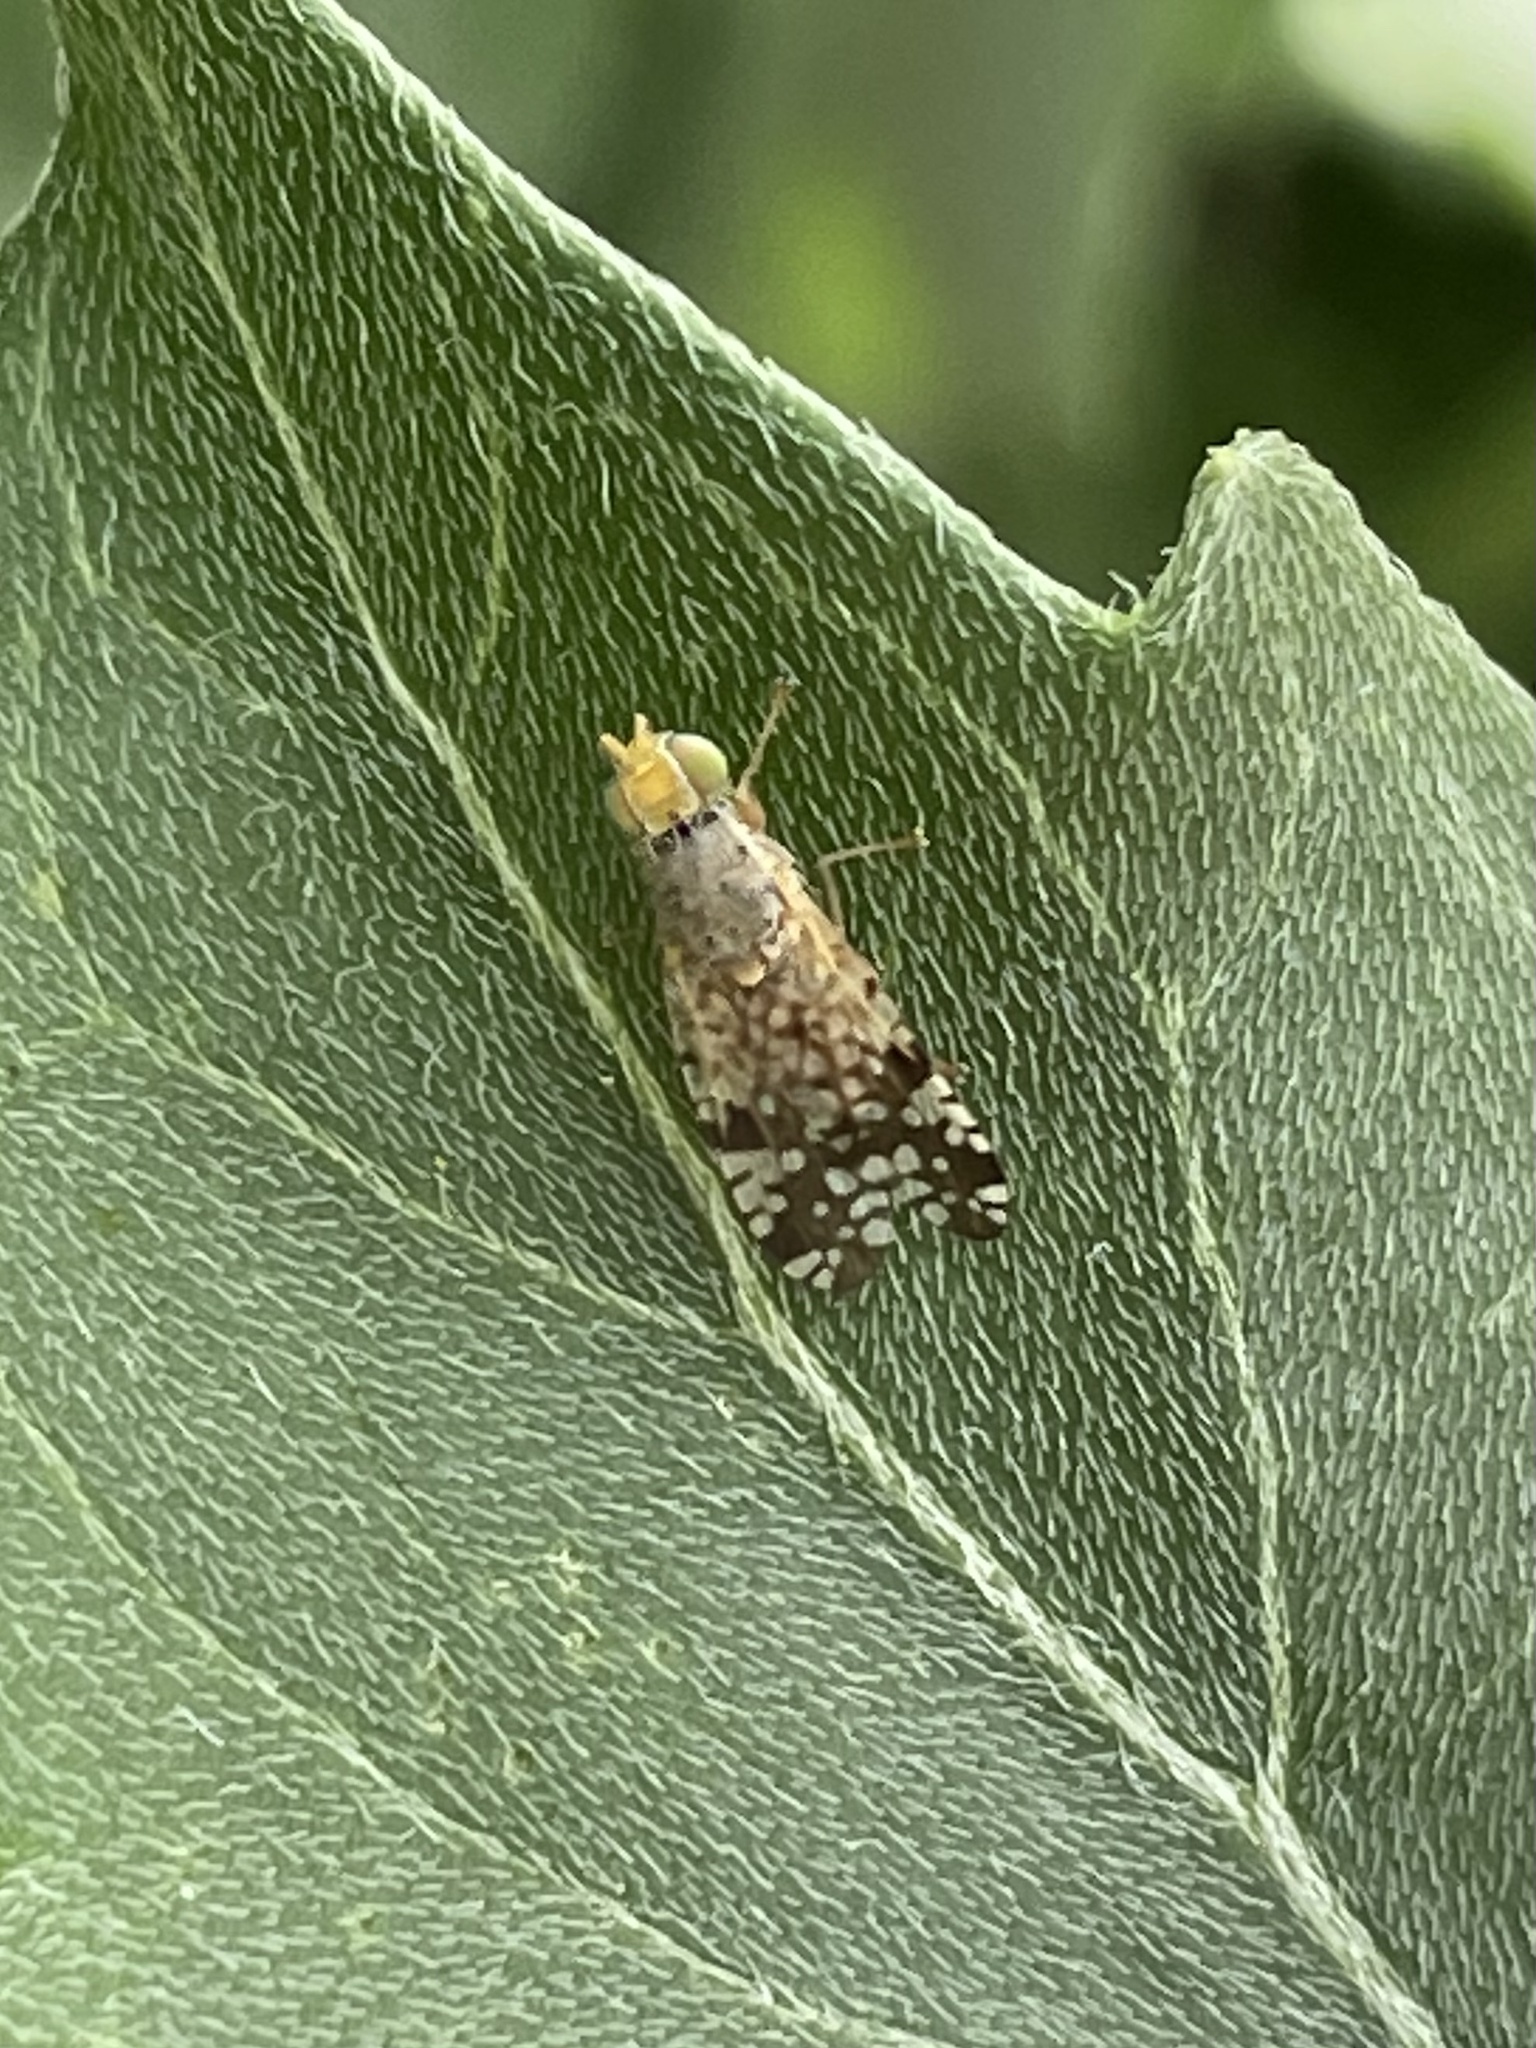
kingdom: Animalia
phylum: Arthropoda
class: Insecta
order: Diptera
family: Tephritidae
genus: Neotephritis
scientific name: Neotephritis finalis
